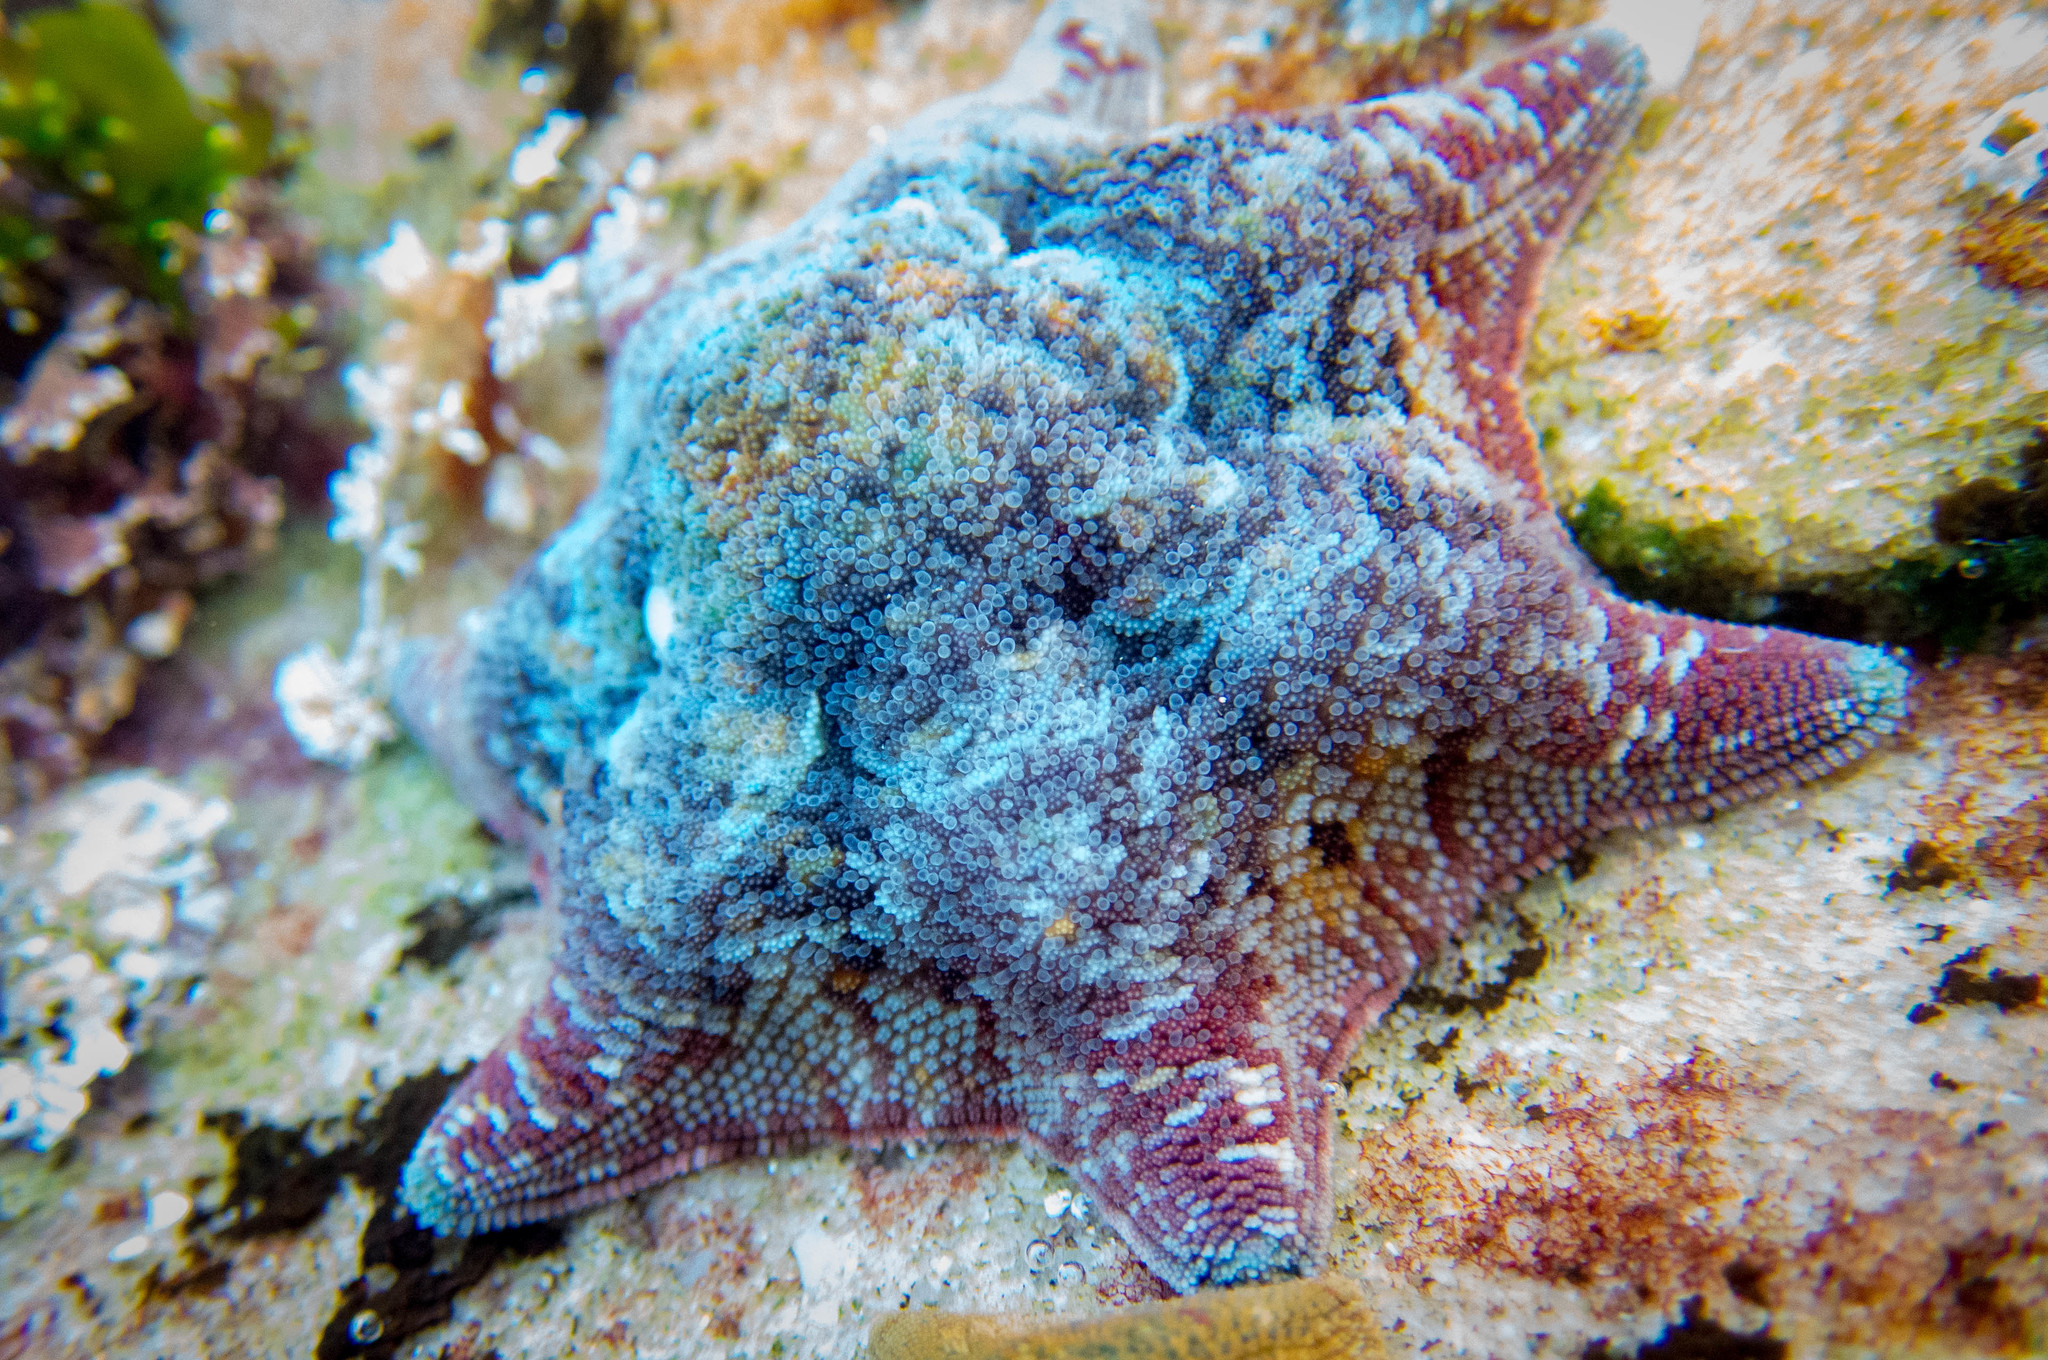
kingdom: Animalia
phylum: Echinodermata
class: Asteroidea
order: Valvatida
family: Asterinidae
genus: Meridiastra
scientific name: Meridiastra calcar
